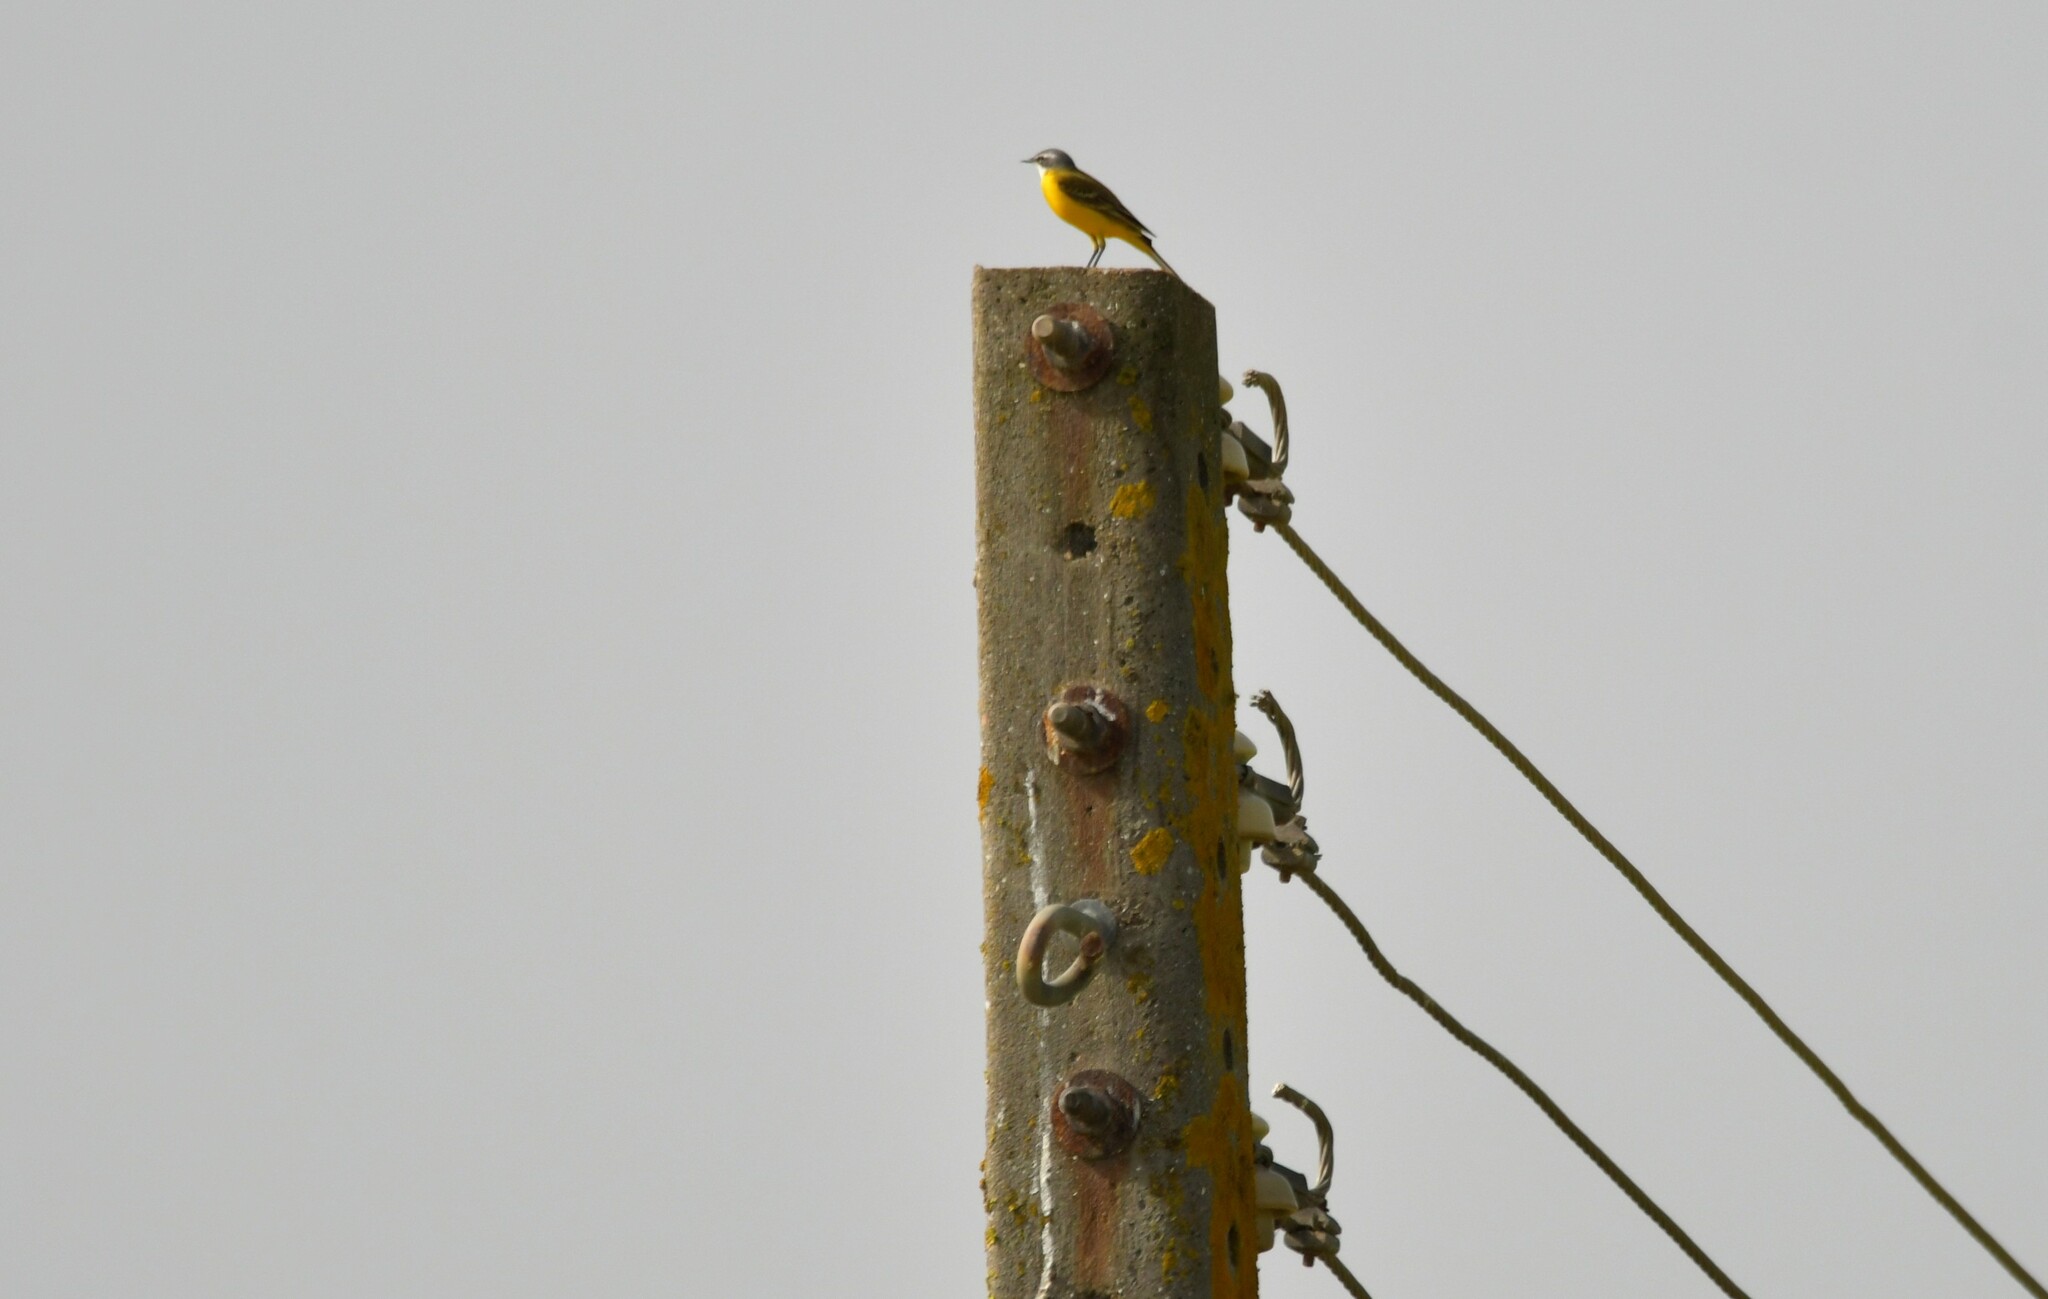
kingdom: Animalia
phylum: Chordata
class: Aves
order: Passeriformes
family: Motacillidae
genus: Motacilla
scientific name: Motacilla flava
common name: Western yellow wagtail
